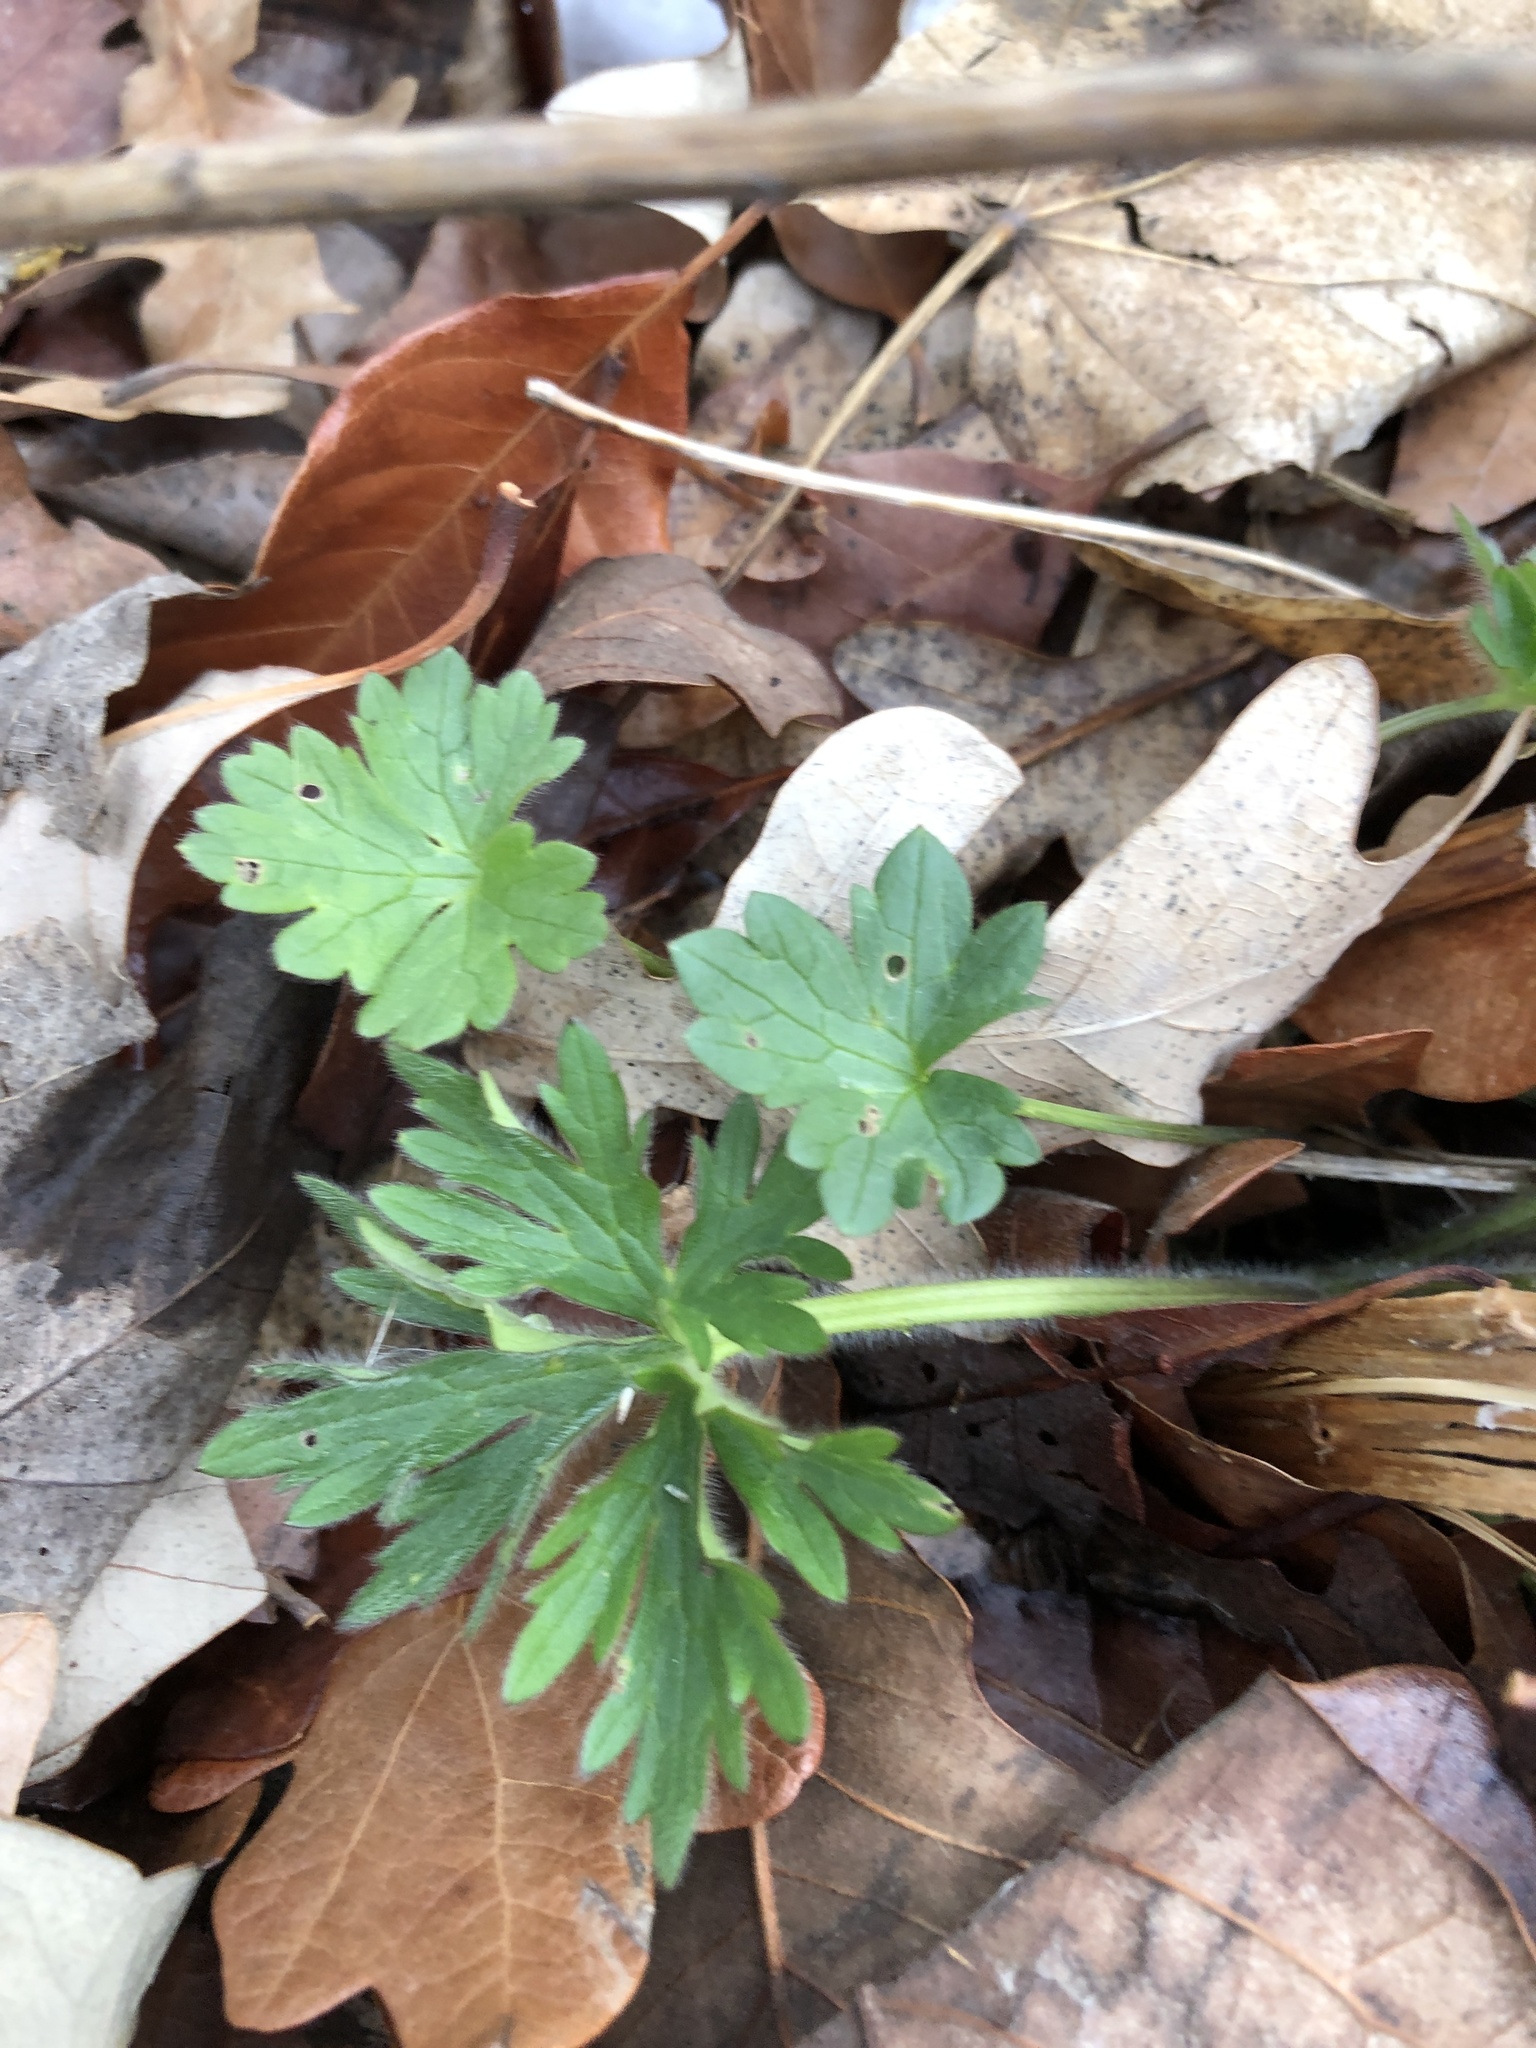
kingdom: Plantae
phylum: Tracheophyta
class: Magnoliopsida
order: Ranunculales
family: Ranunculaceae
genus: Ranunculus
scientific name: Ranunculus acris
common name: Meadow buttercup
